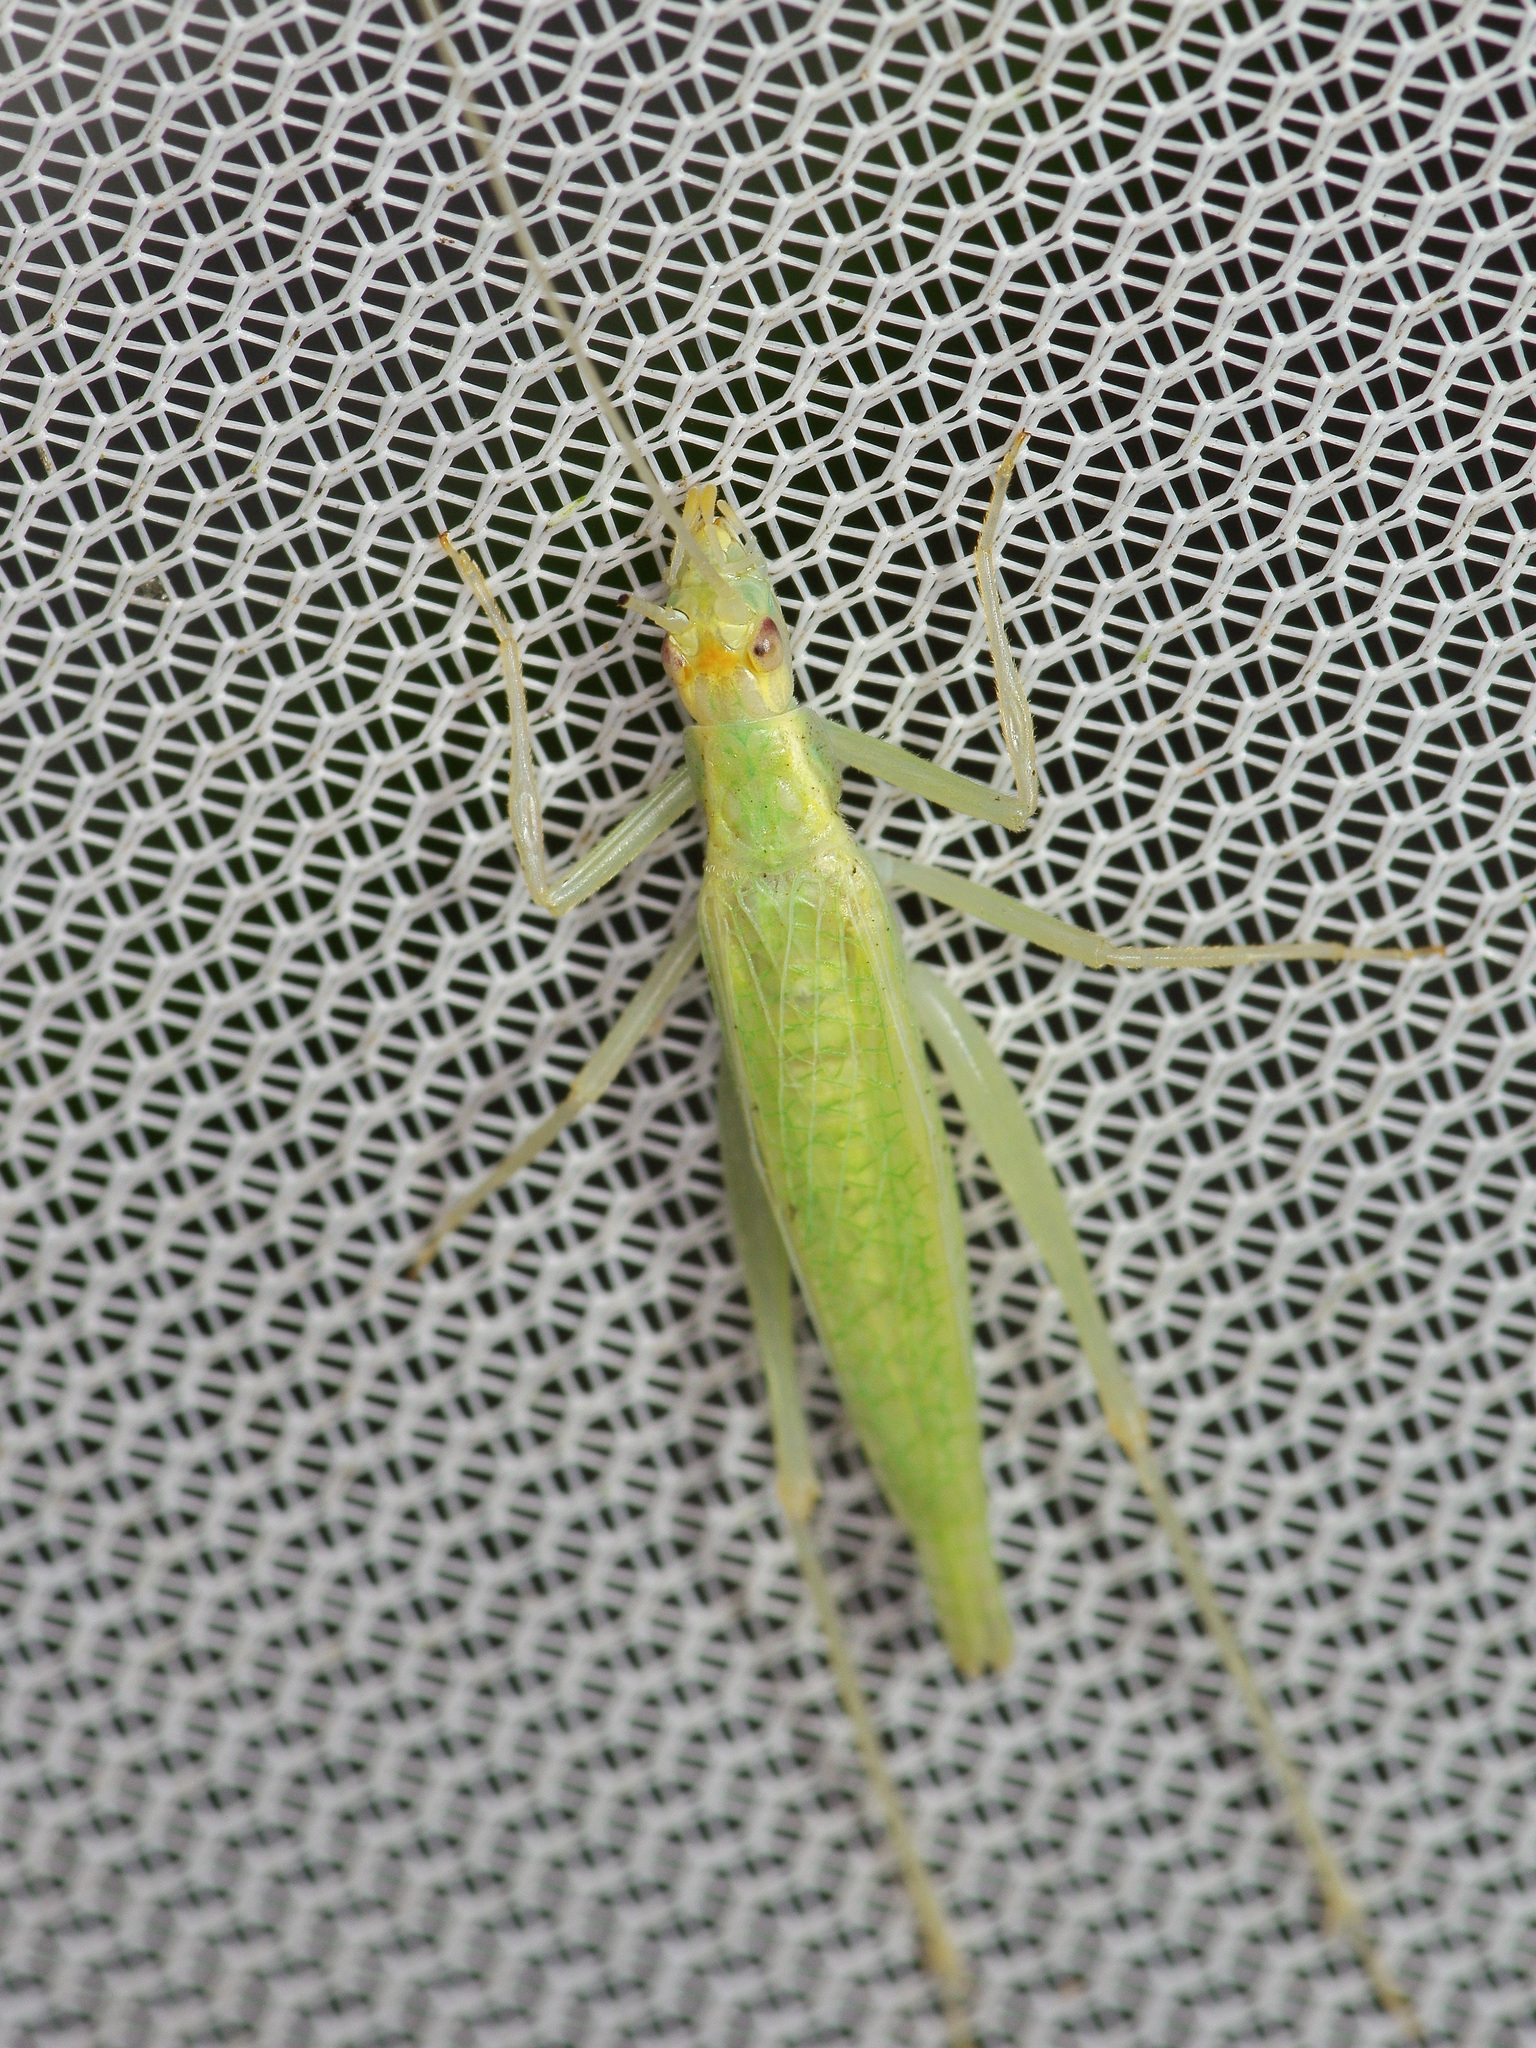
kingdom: Animalia
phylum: Arthropoda
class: Insecta
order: Orthoptera
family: Gryllidae
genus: Oecanthus
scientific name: Oecanthus exclamationis
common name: Davis's tree cricket
